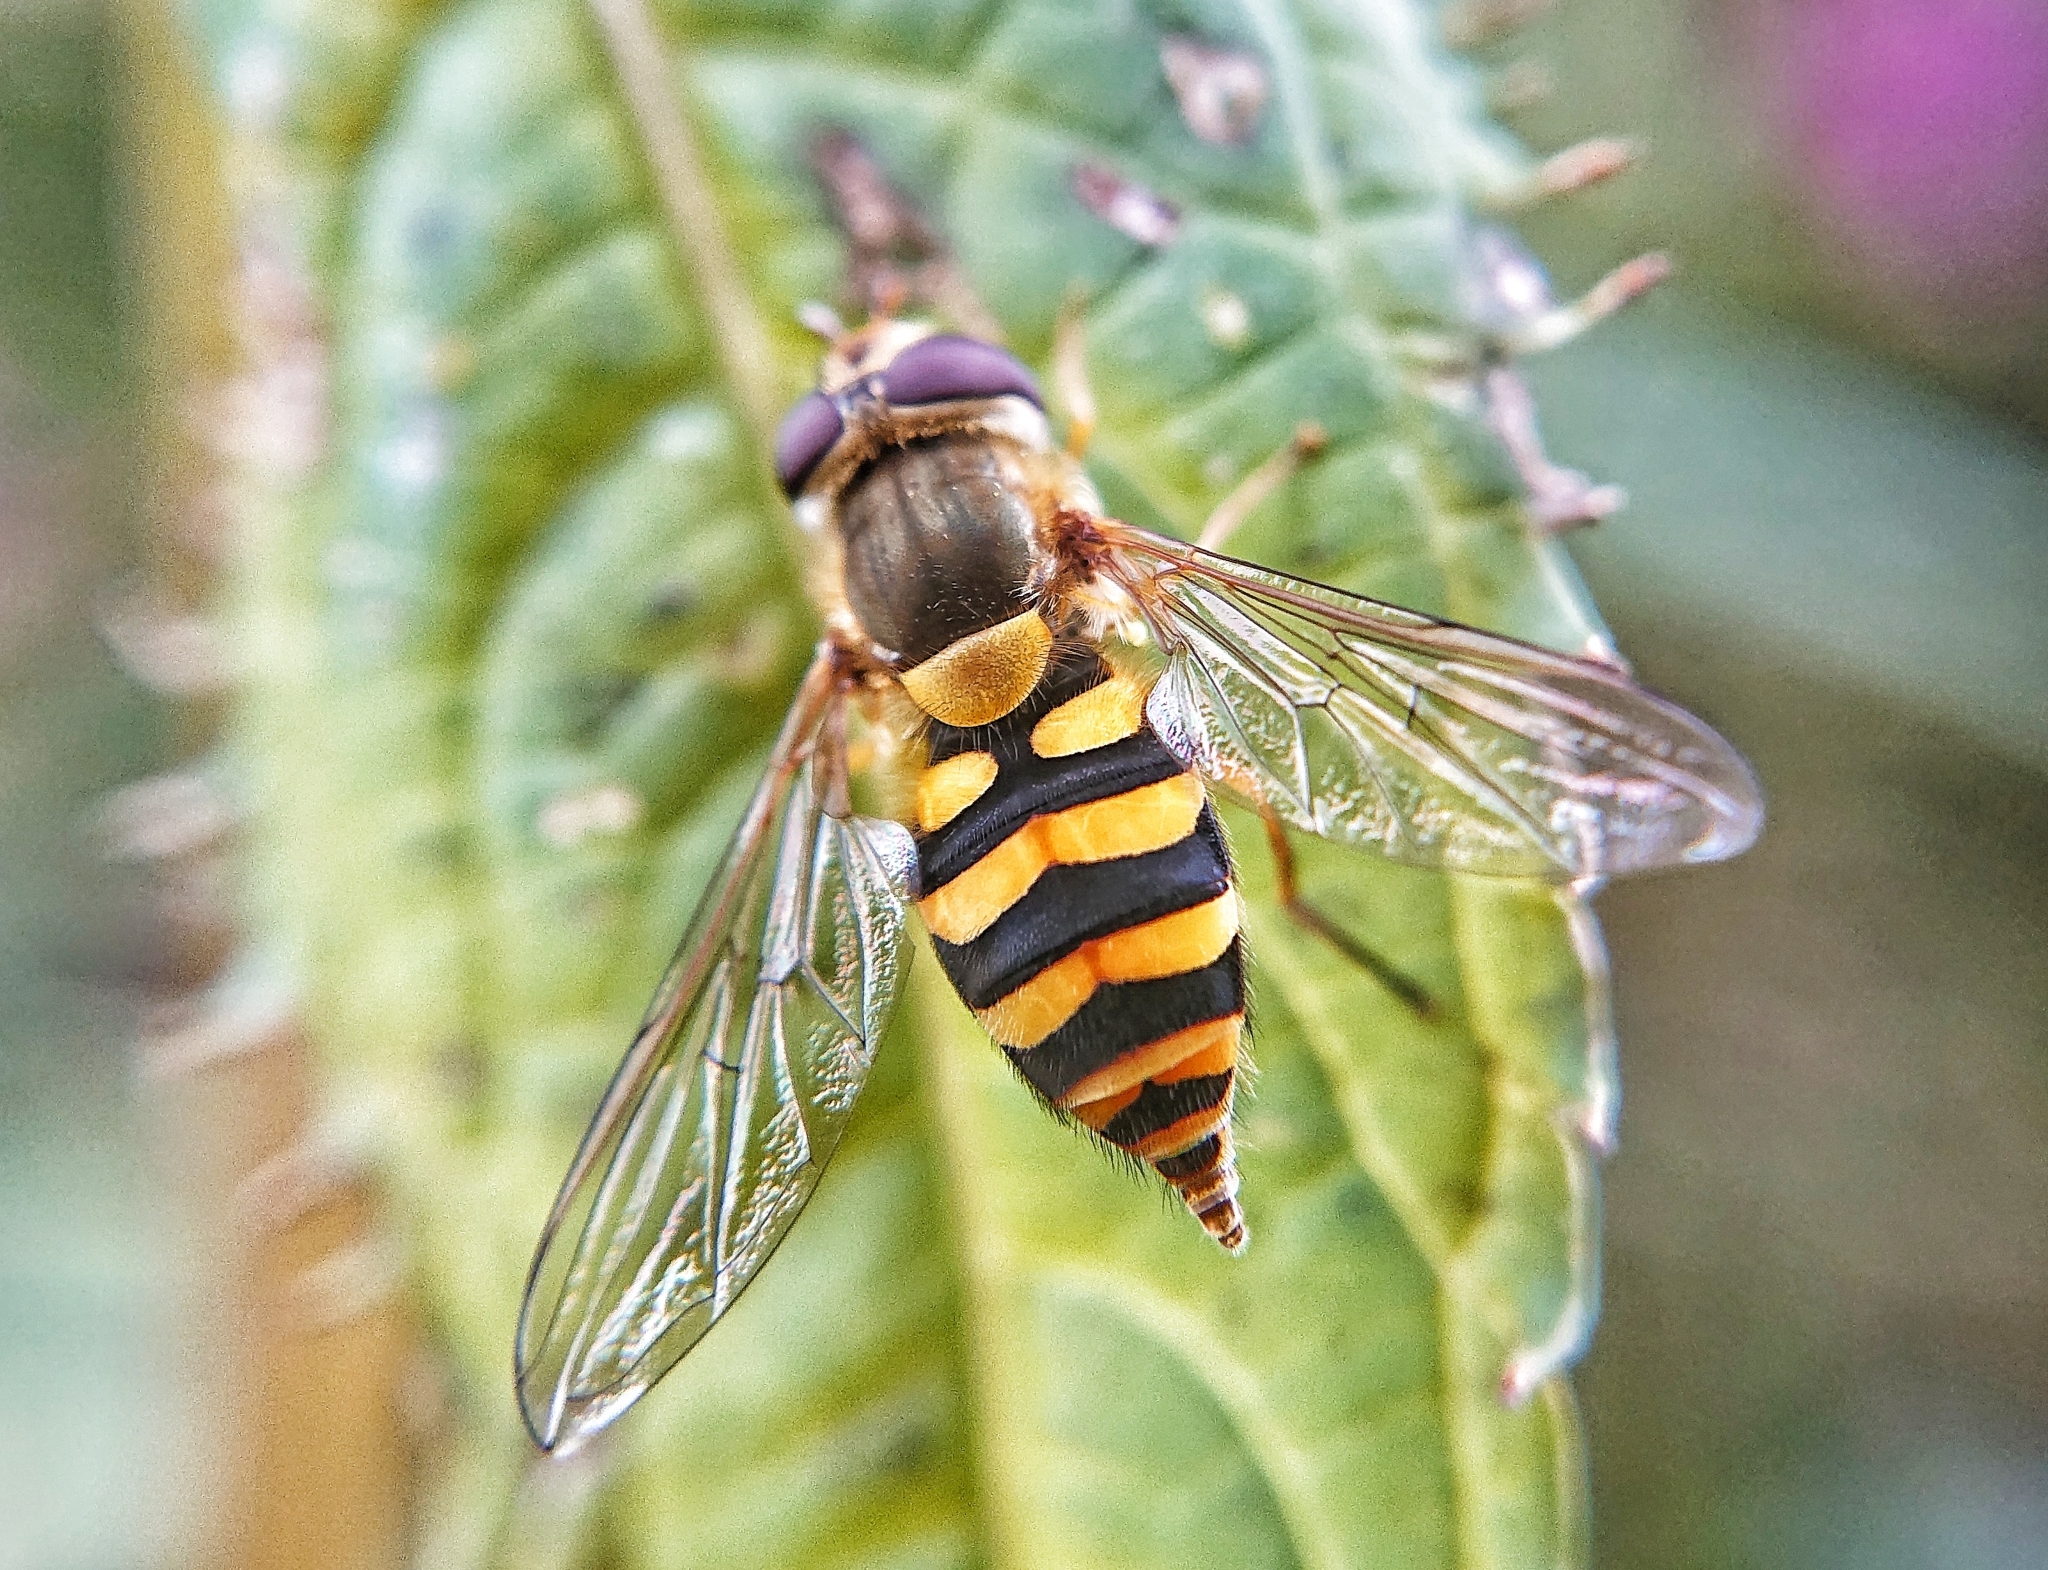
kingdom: Animalia
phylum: Arthropoda
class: Insecta
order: Diptera
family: Syrphidae
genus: Syrphus
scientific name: Syrphus
